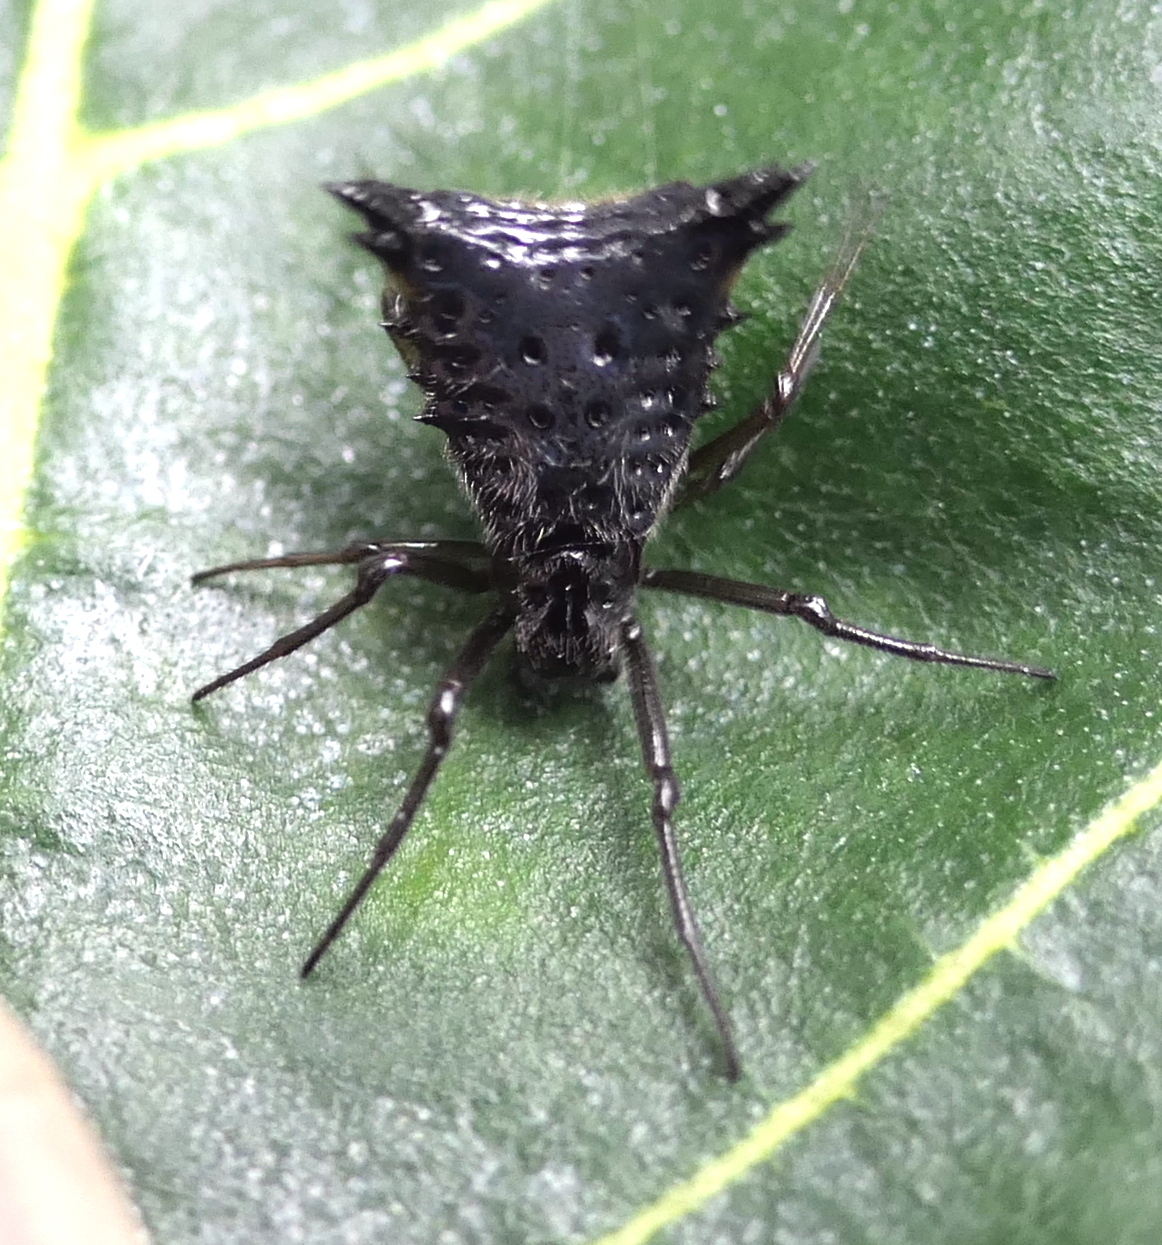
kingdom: Animalia
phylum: Arthropoda
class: Arachnida
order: Araneae
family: Araneidae
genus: Micrathena
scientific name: Micrathena triangularis
